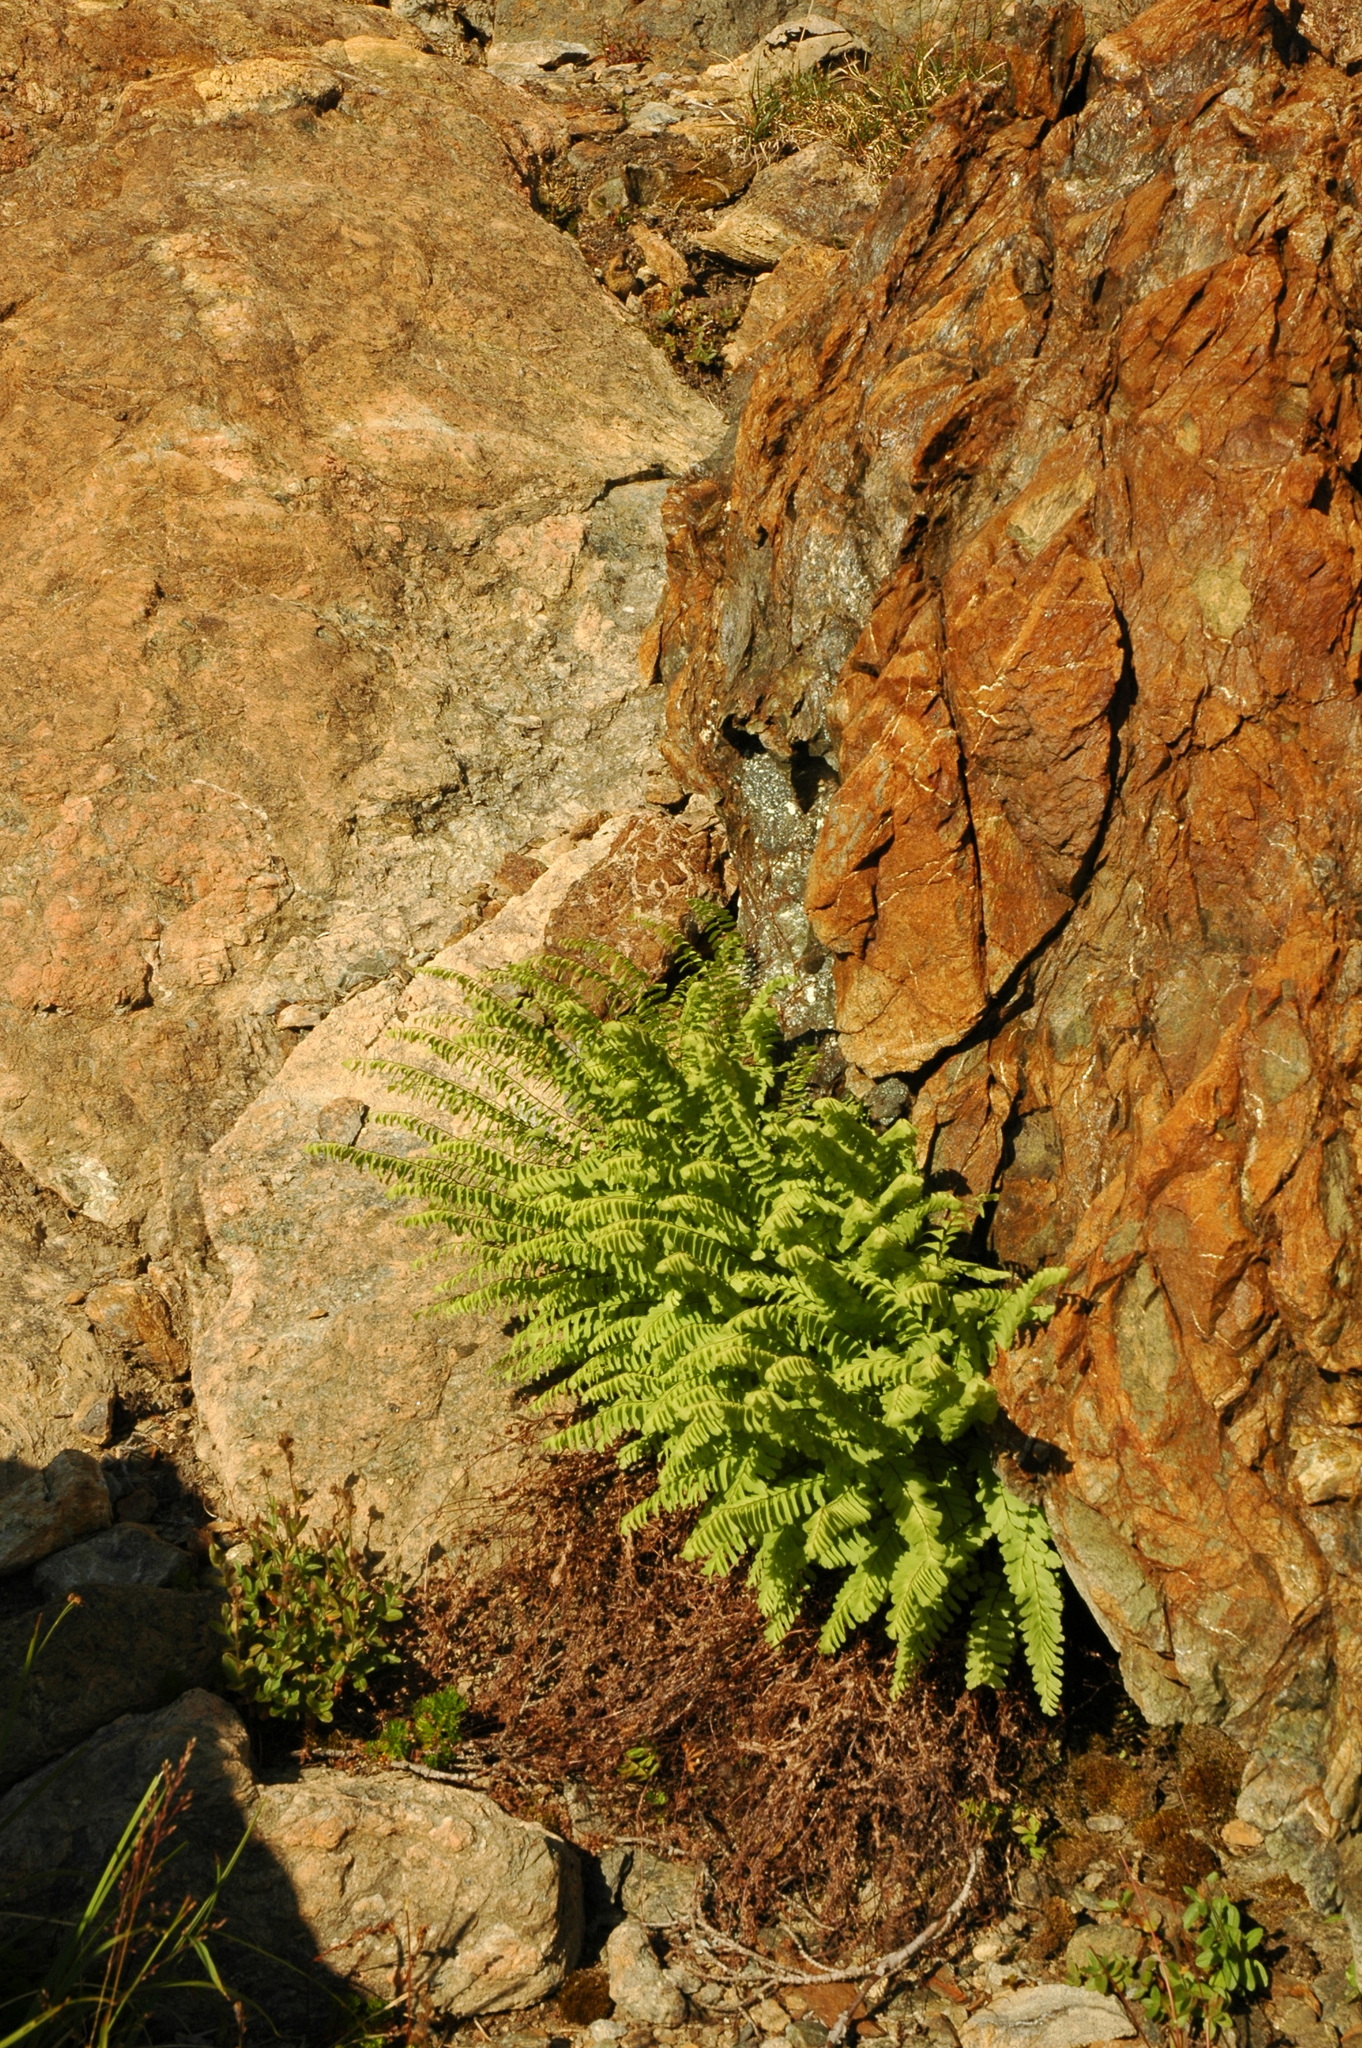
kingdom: Plantae
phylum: Tracheophyta
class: Polypodiopsida
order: Polypodiales
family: Pteridaceae
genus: Adiantum
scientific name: Adiantum aleuticum
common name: Aleutian maidenhair fern
